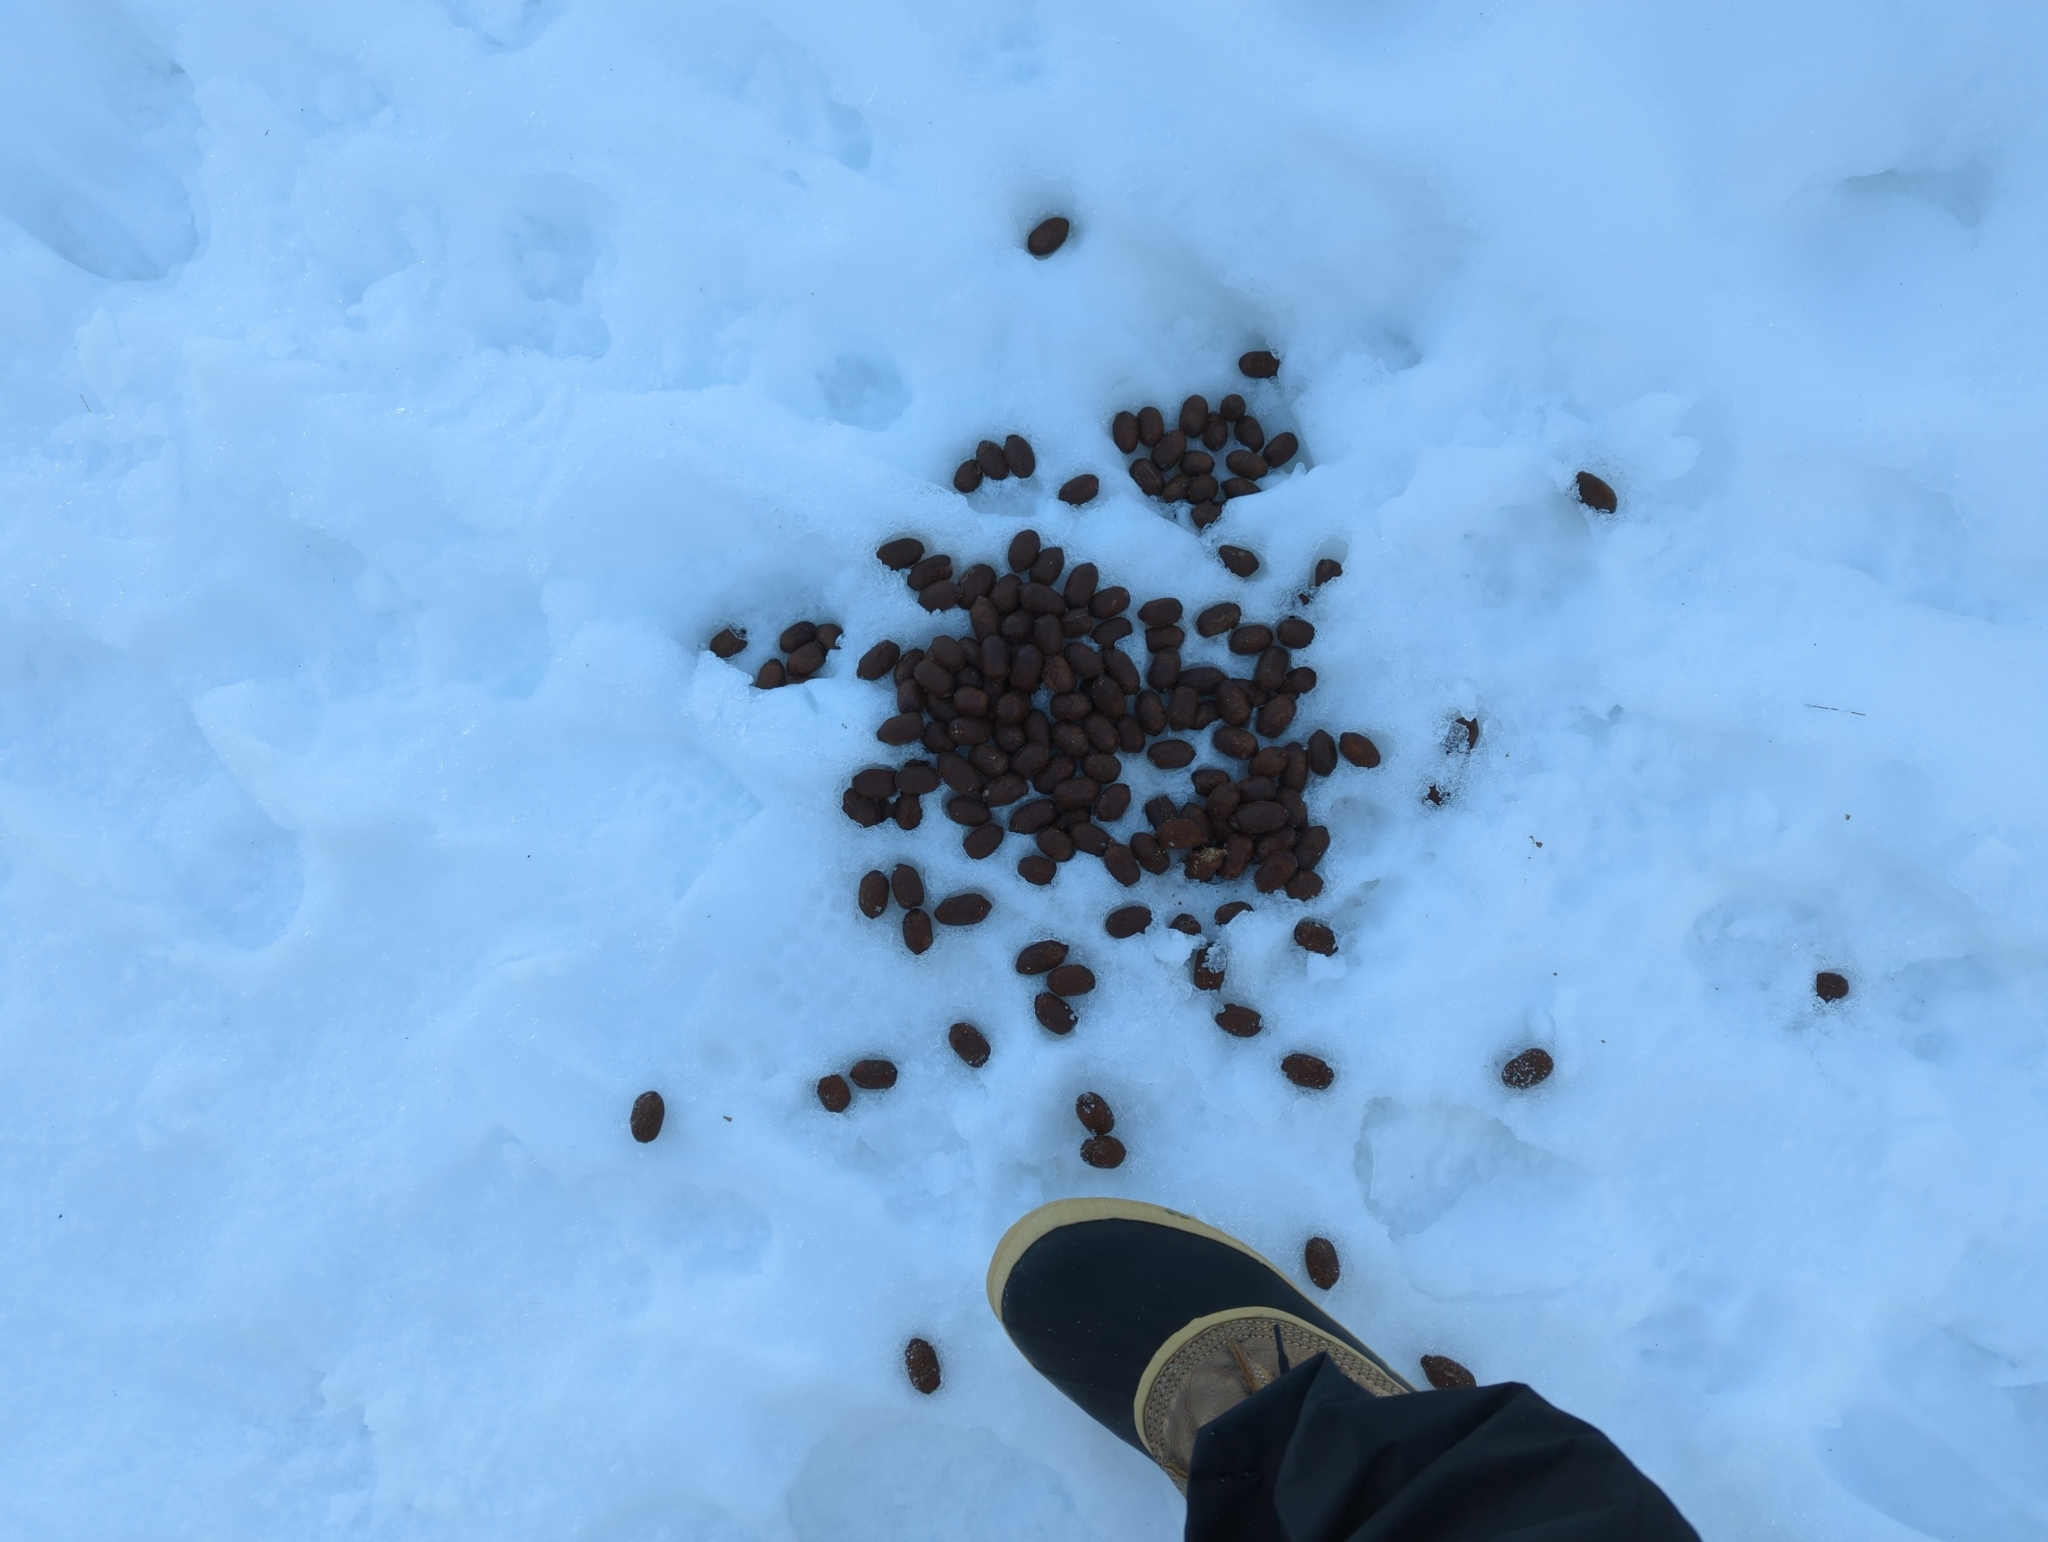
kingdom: Animalia
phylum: Chordata
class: Mammalia
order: Artiodactyla
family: Cervidae
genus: Alces
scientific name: Alces alces
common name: Moose
